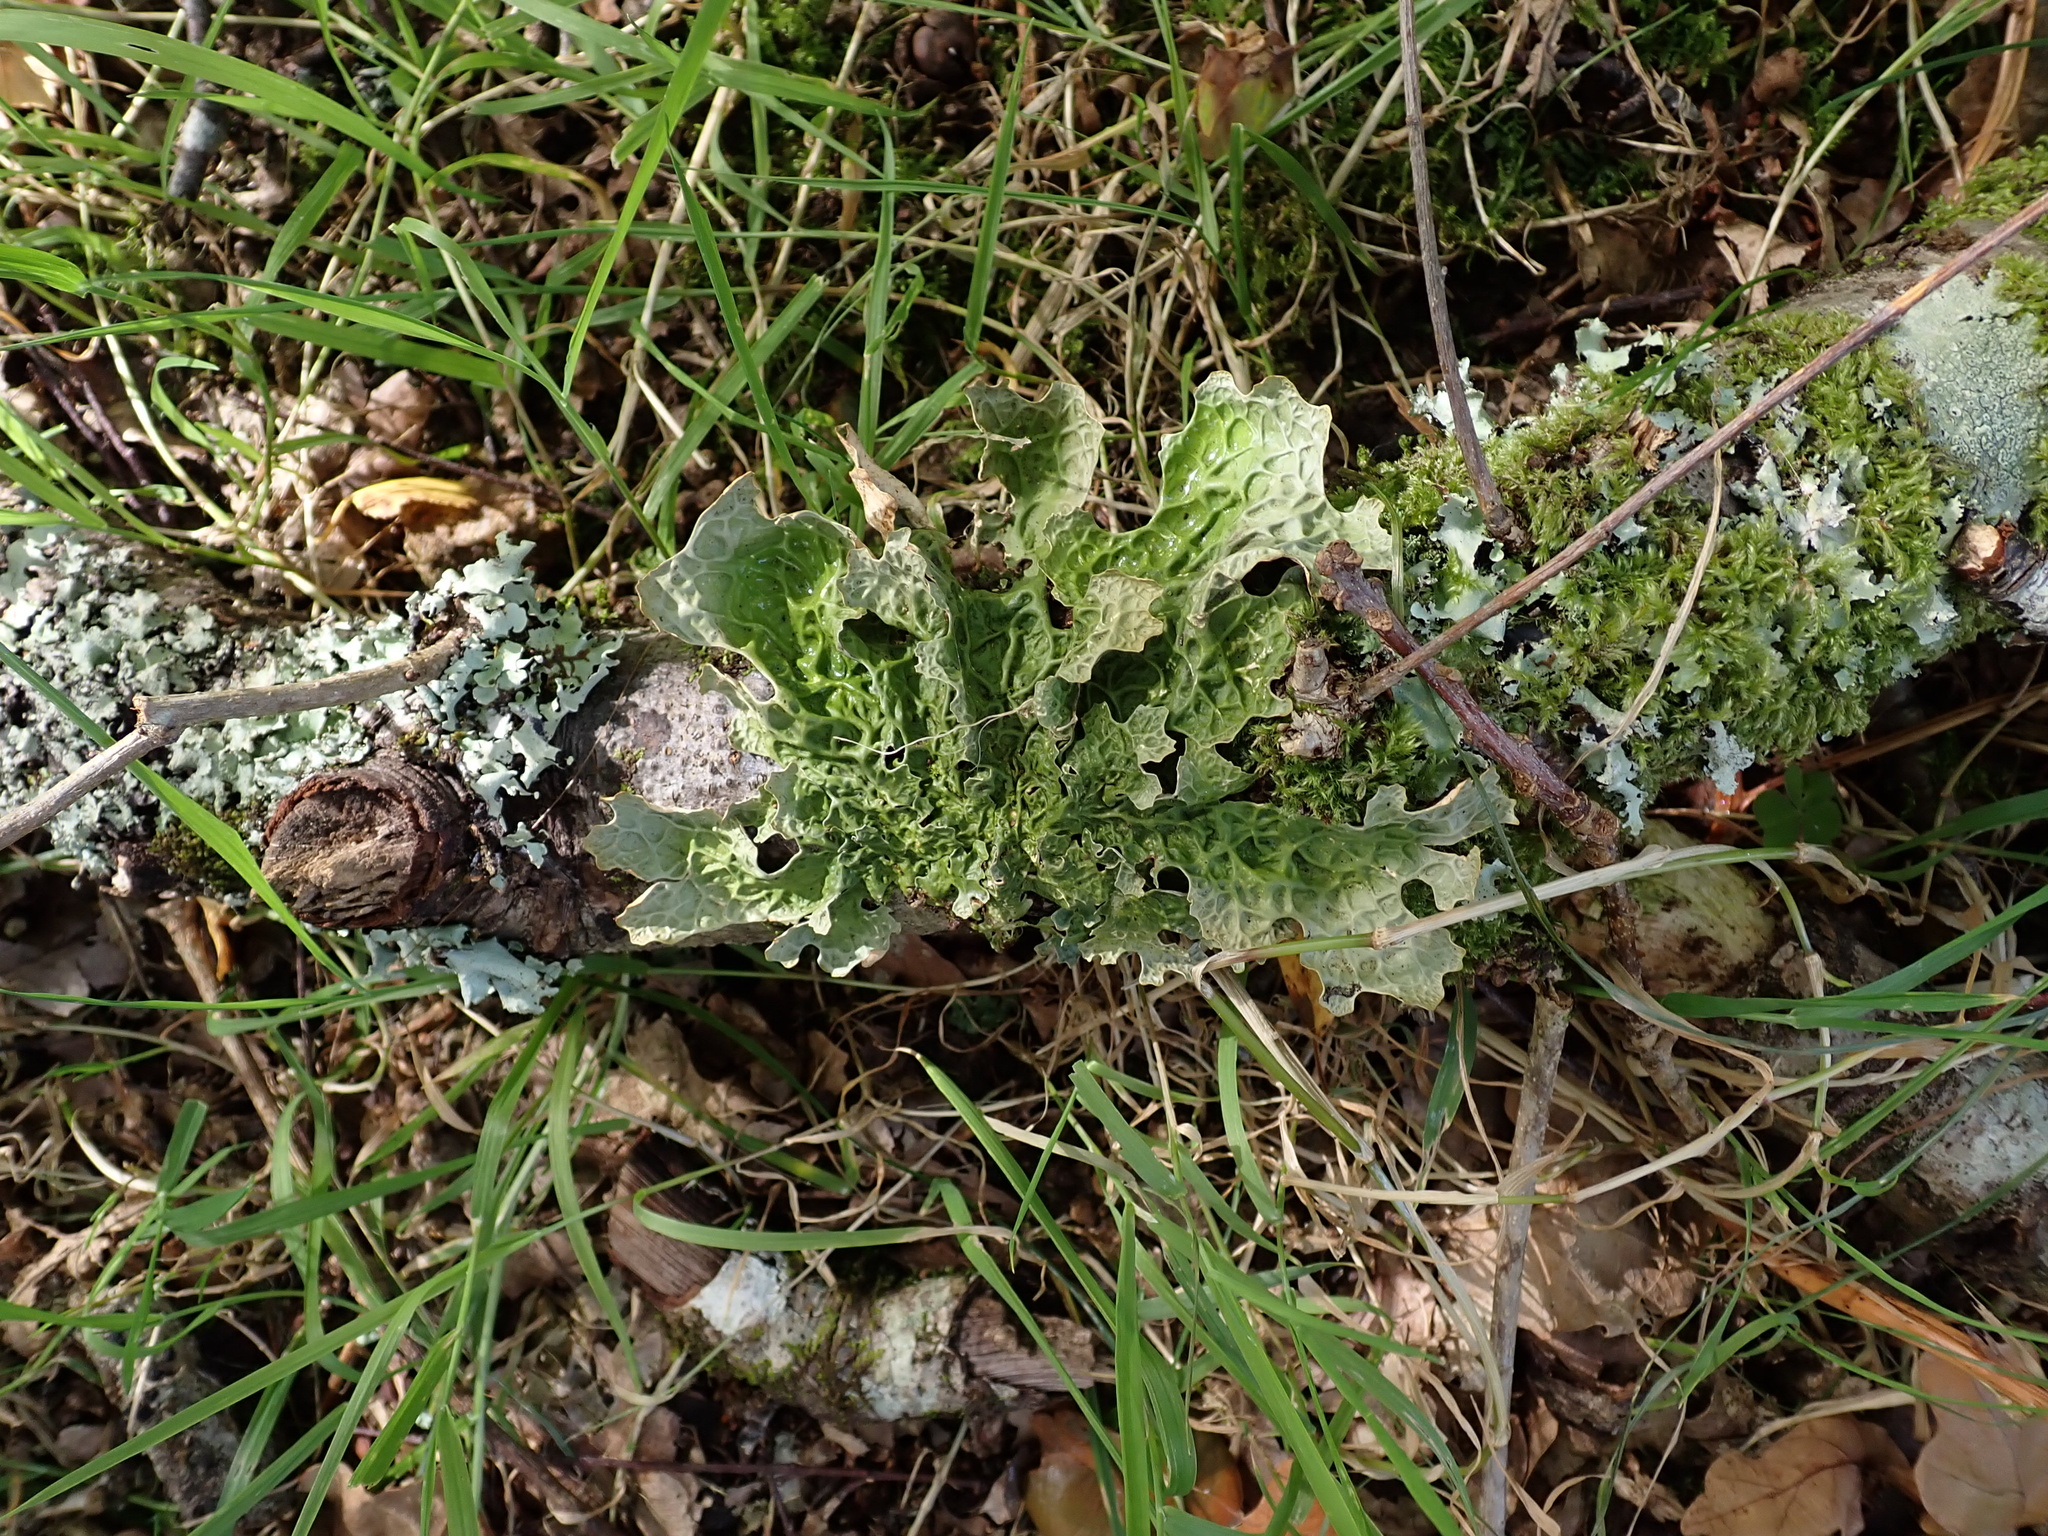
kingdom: Fungi
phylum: Ascomycota
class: Lecanoromycetes
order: Peltigerales
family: Lobariaceae
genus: Lobaria
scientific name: Lobaria pulmonaria
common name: Lungwort
